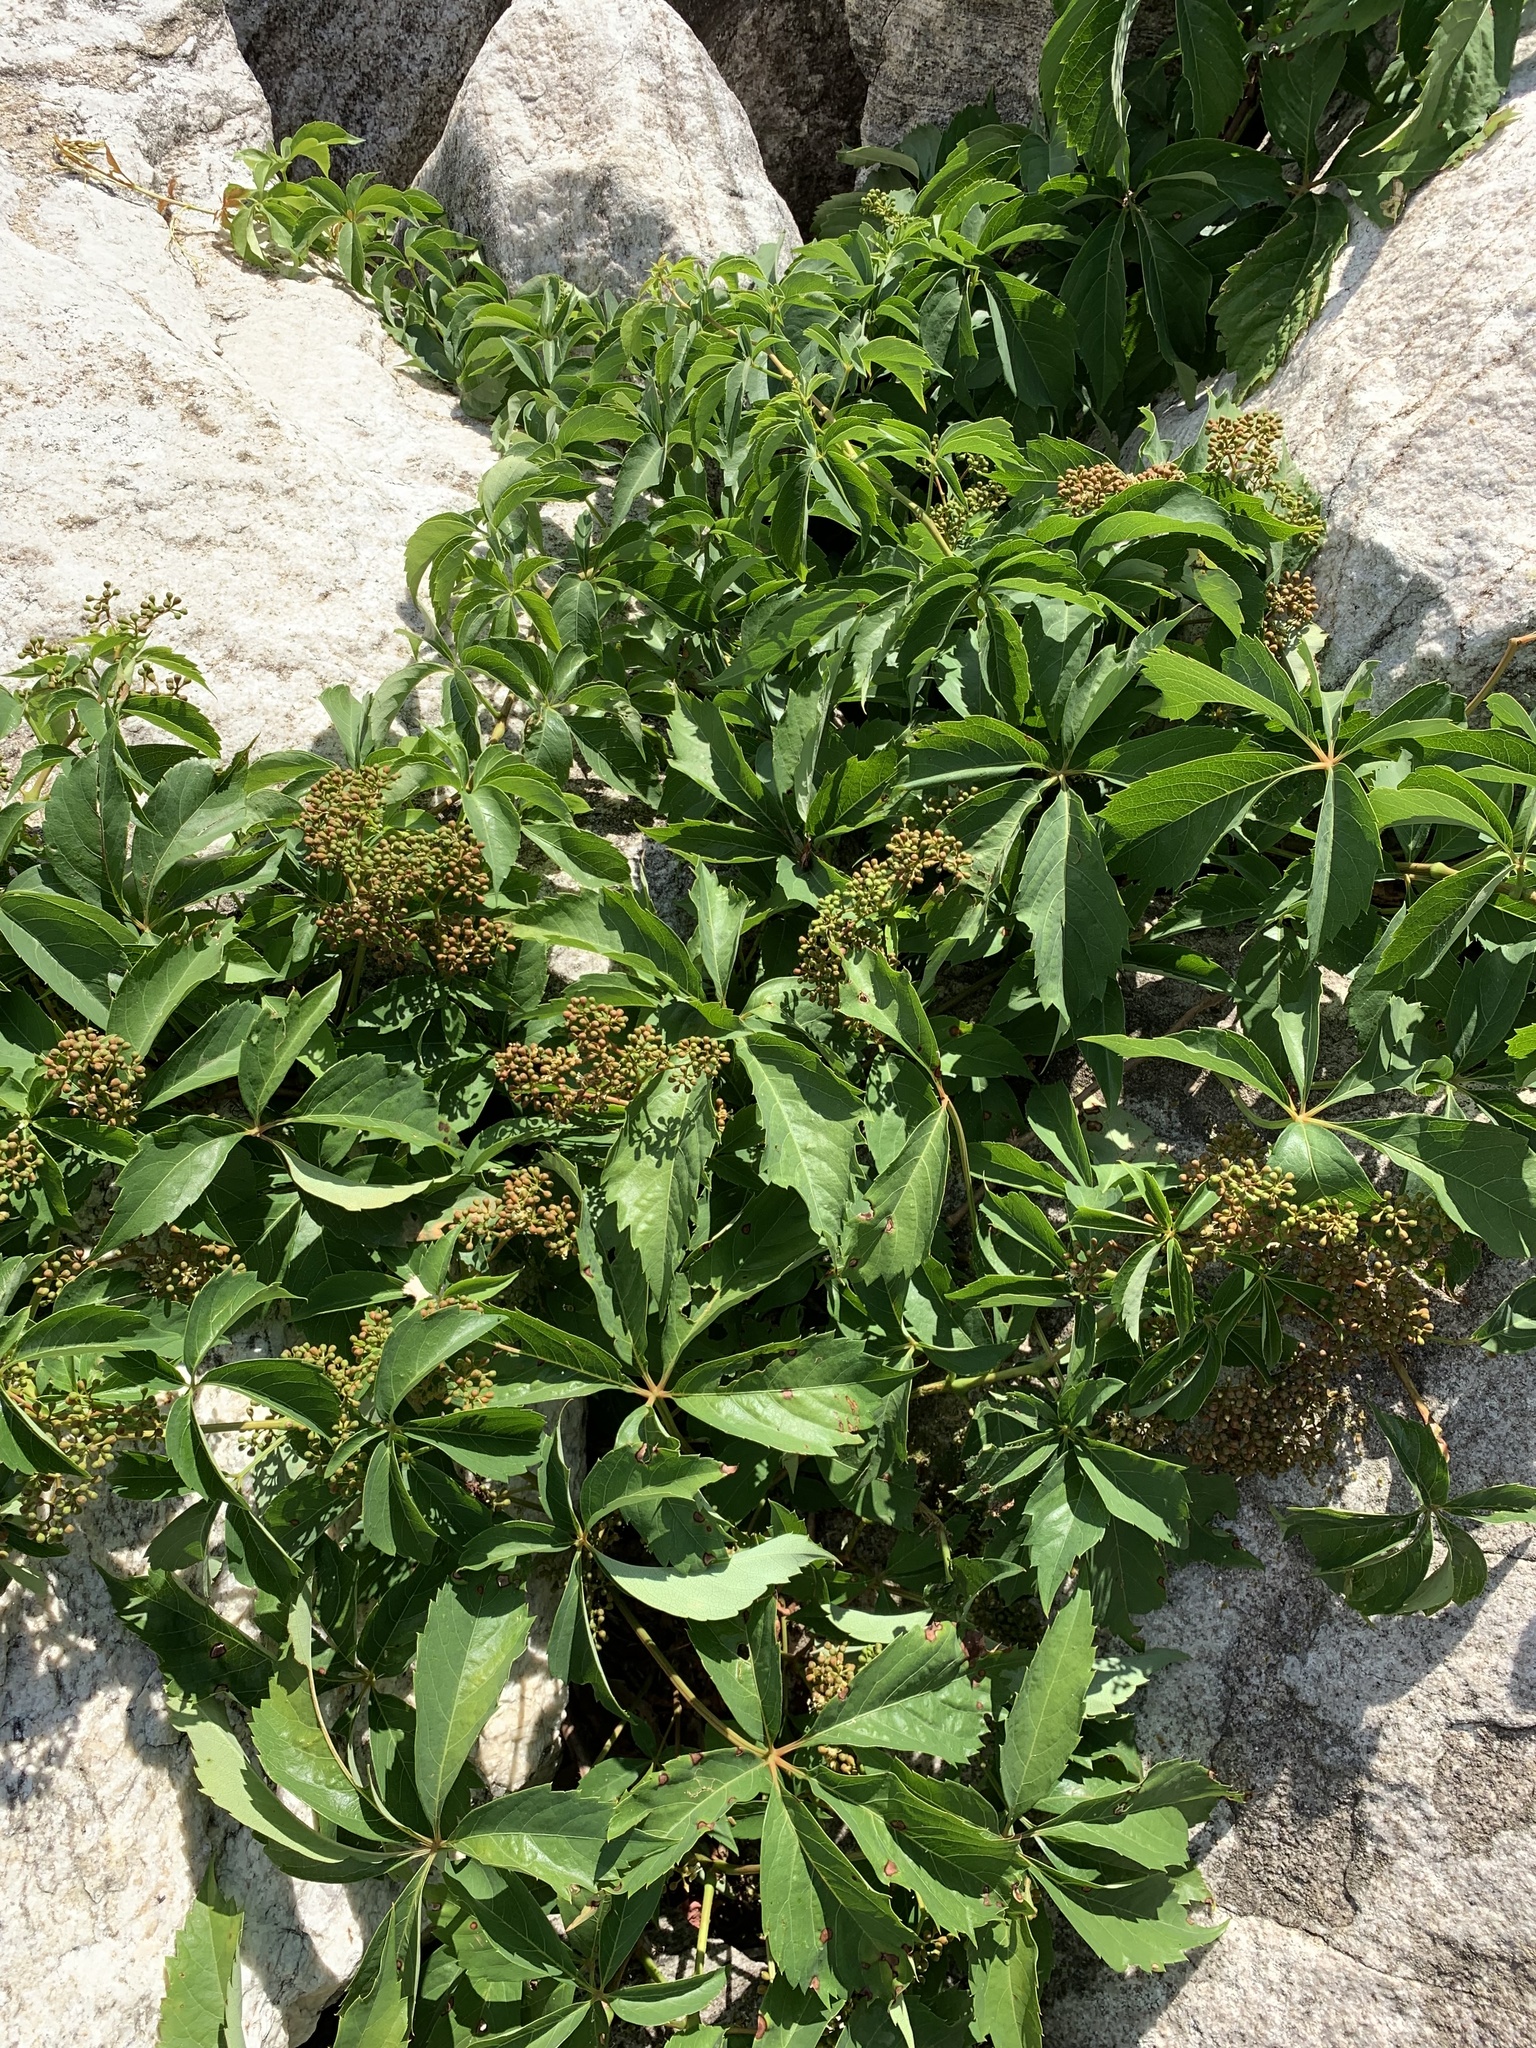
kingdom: Plantae
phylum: Tracheophyta
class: Magnoliopsida
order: Vitales
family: Vitaceae
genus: Parthenocissus
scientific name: Parthenocissus quinquefolia
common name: Virginia-creeper
